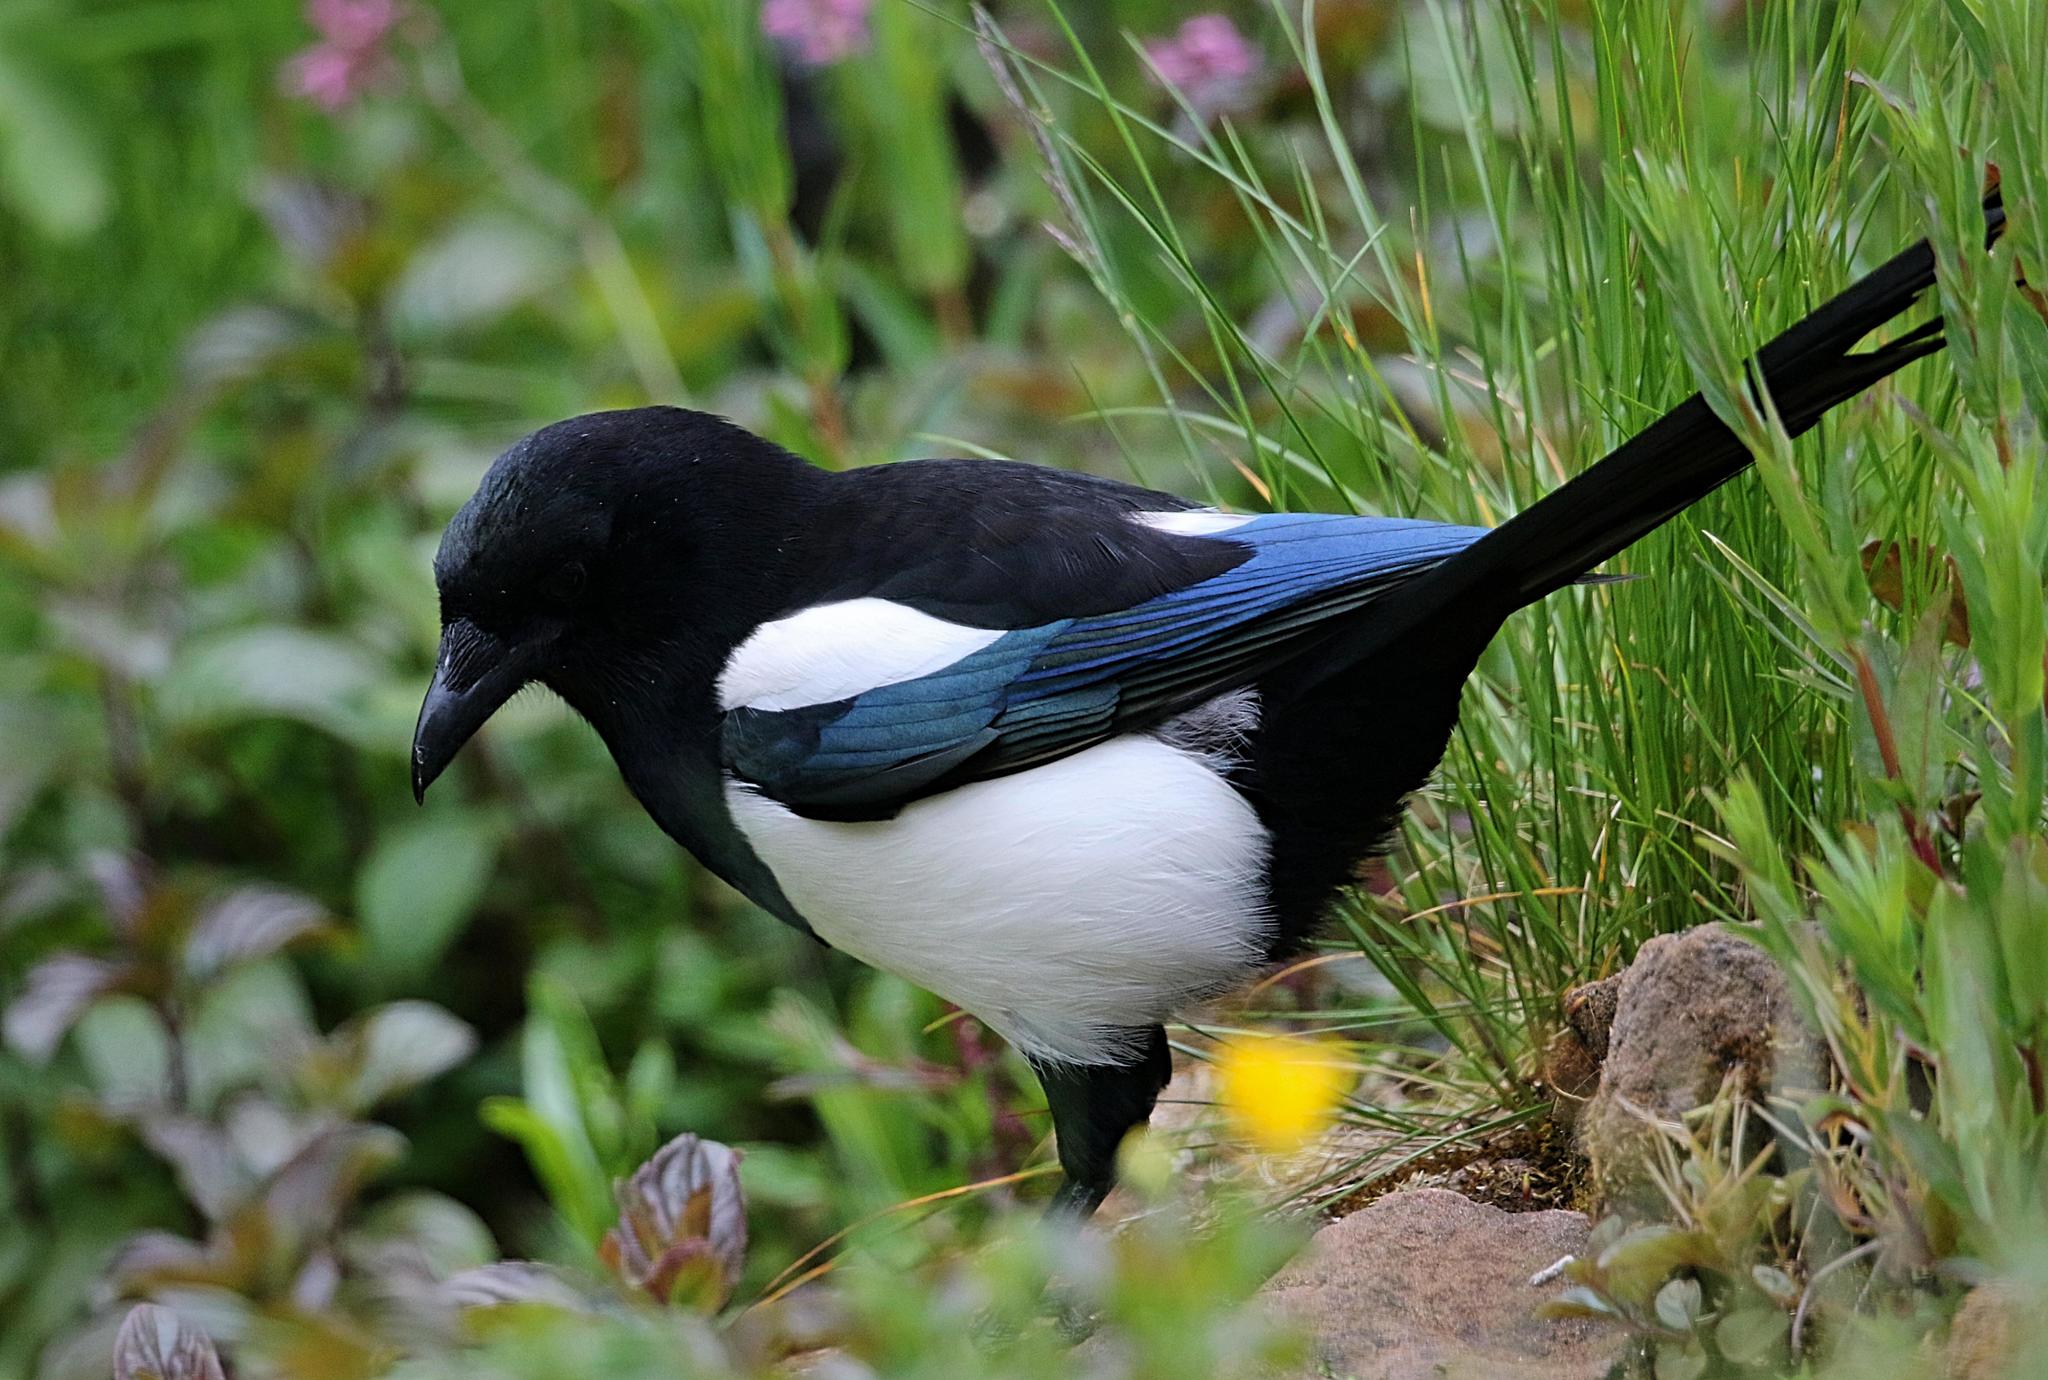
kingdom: Animalia
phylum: Chordata
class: Aves
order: Passeriformes
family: Corvidae
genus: Pica
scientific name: Pica pica
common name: Eurasian magpie
